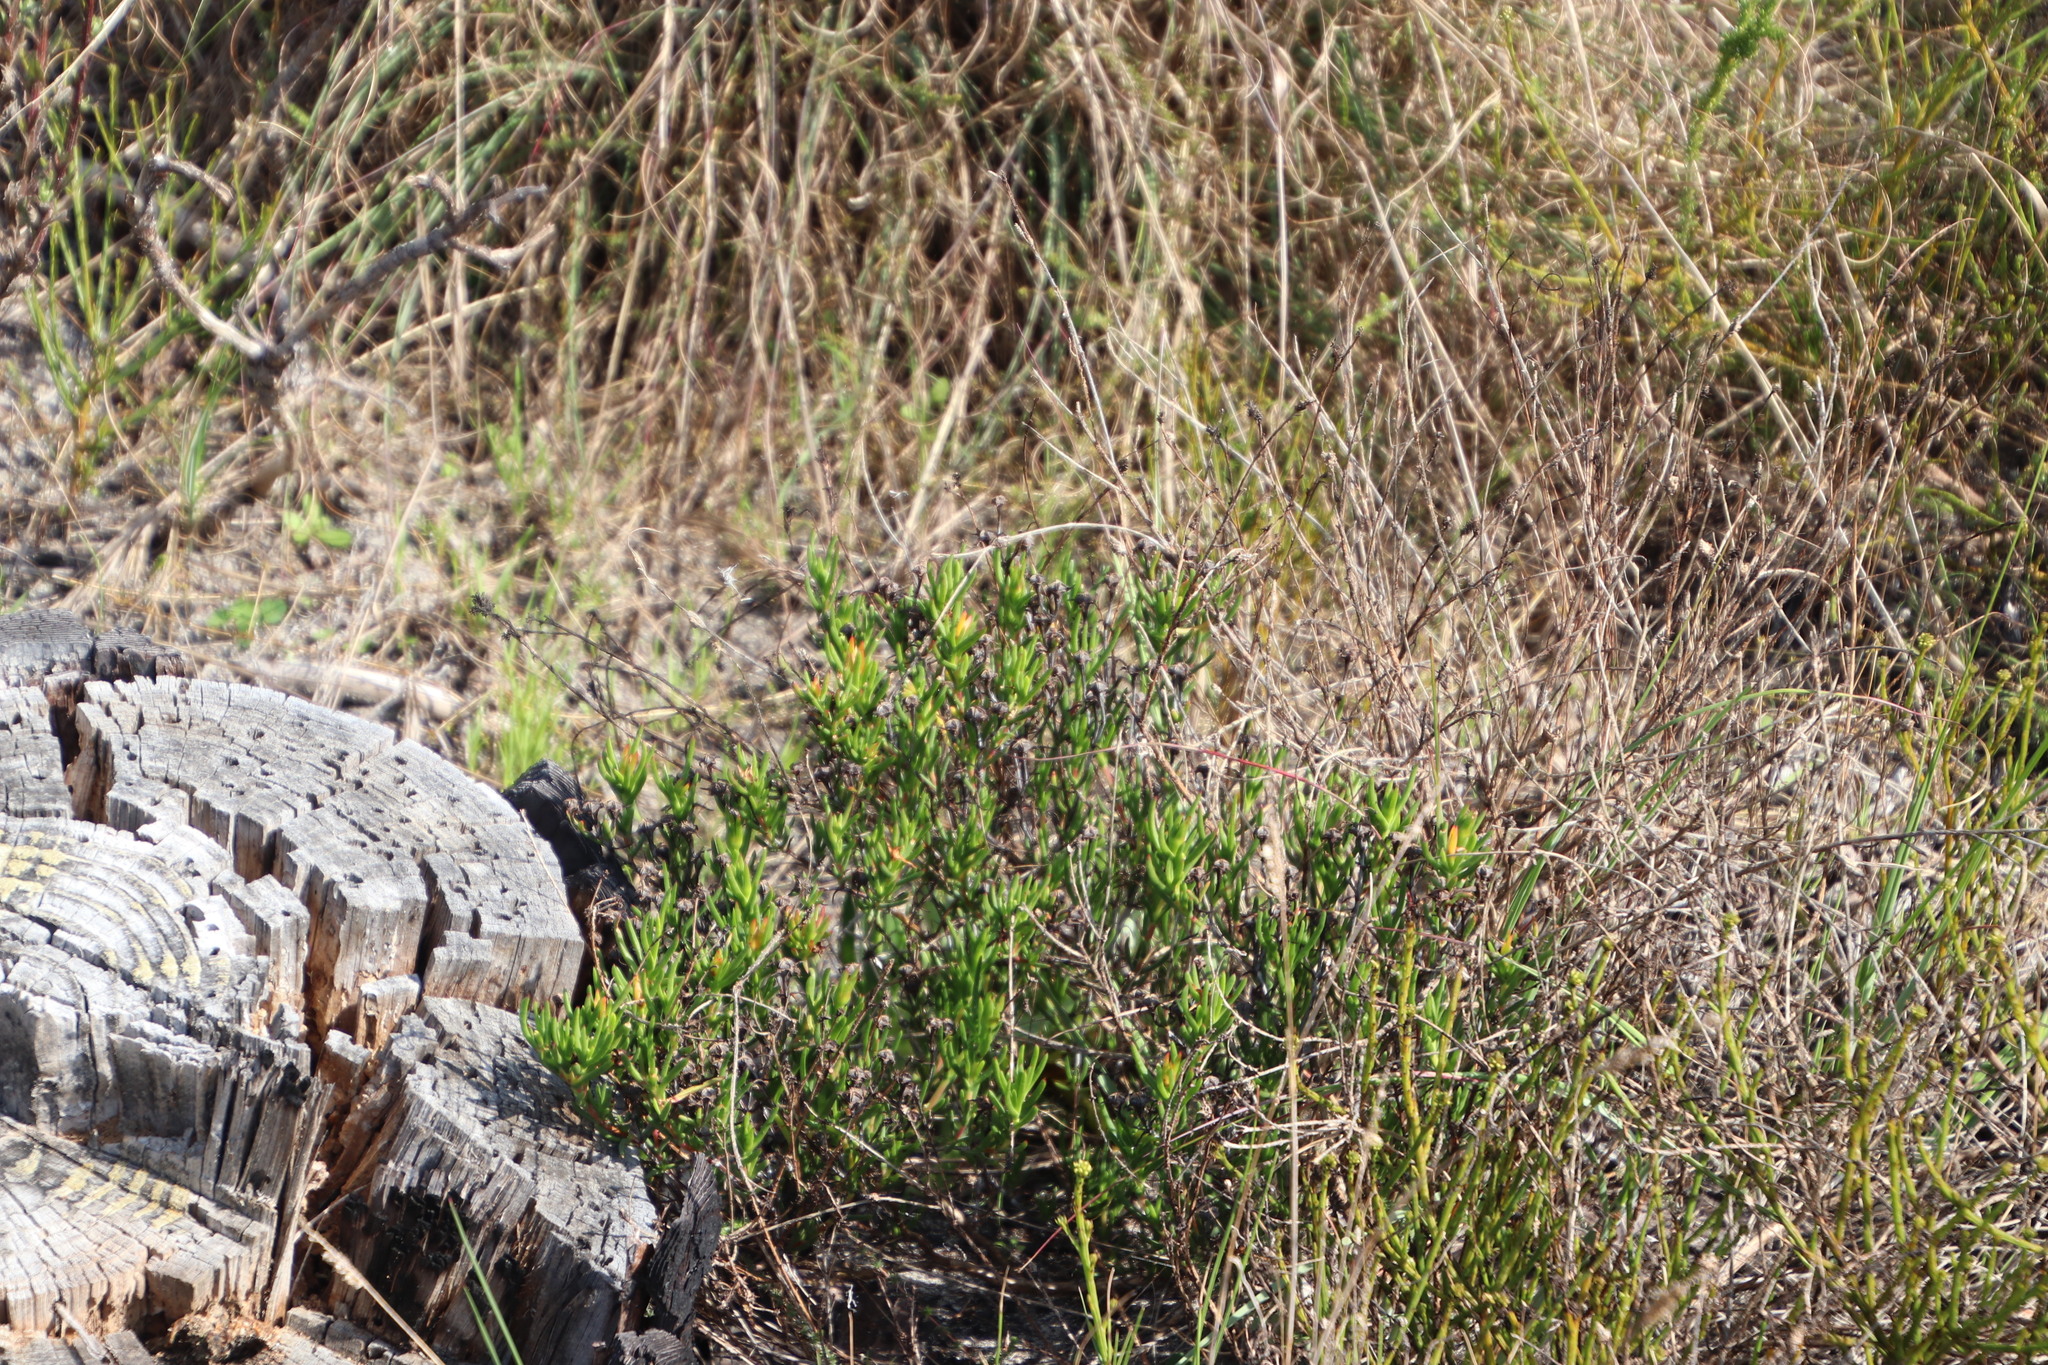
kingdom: Plantae
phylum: Tracheophyta
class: Magnoliopsida
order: Caryophyllales
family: Aizoaceae
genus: Lampranthus
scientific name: Lampranthus bicolor
